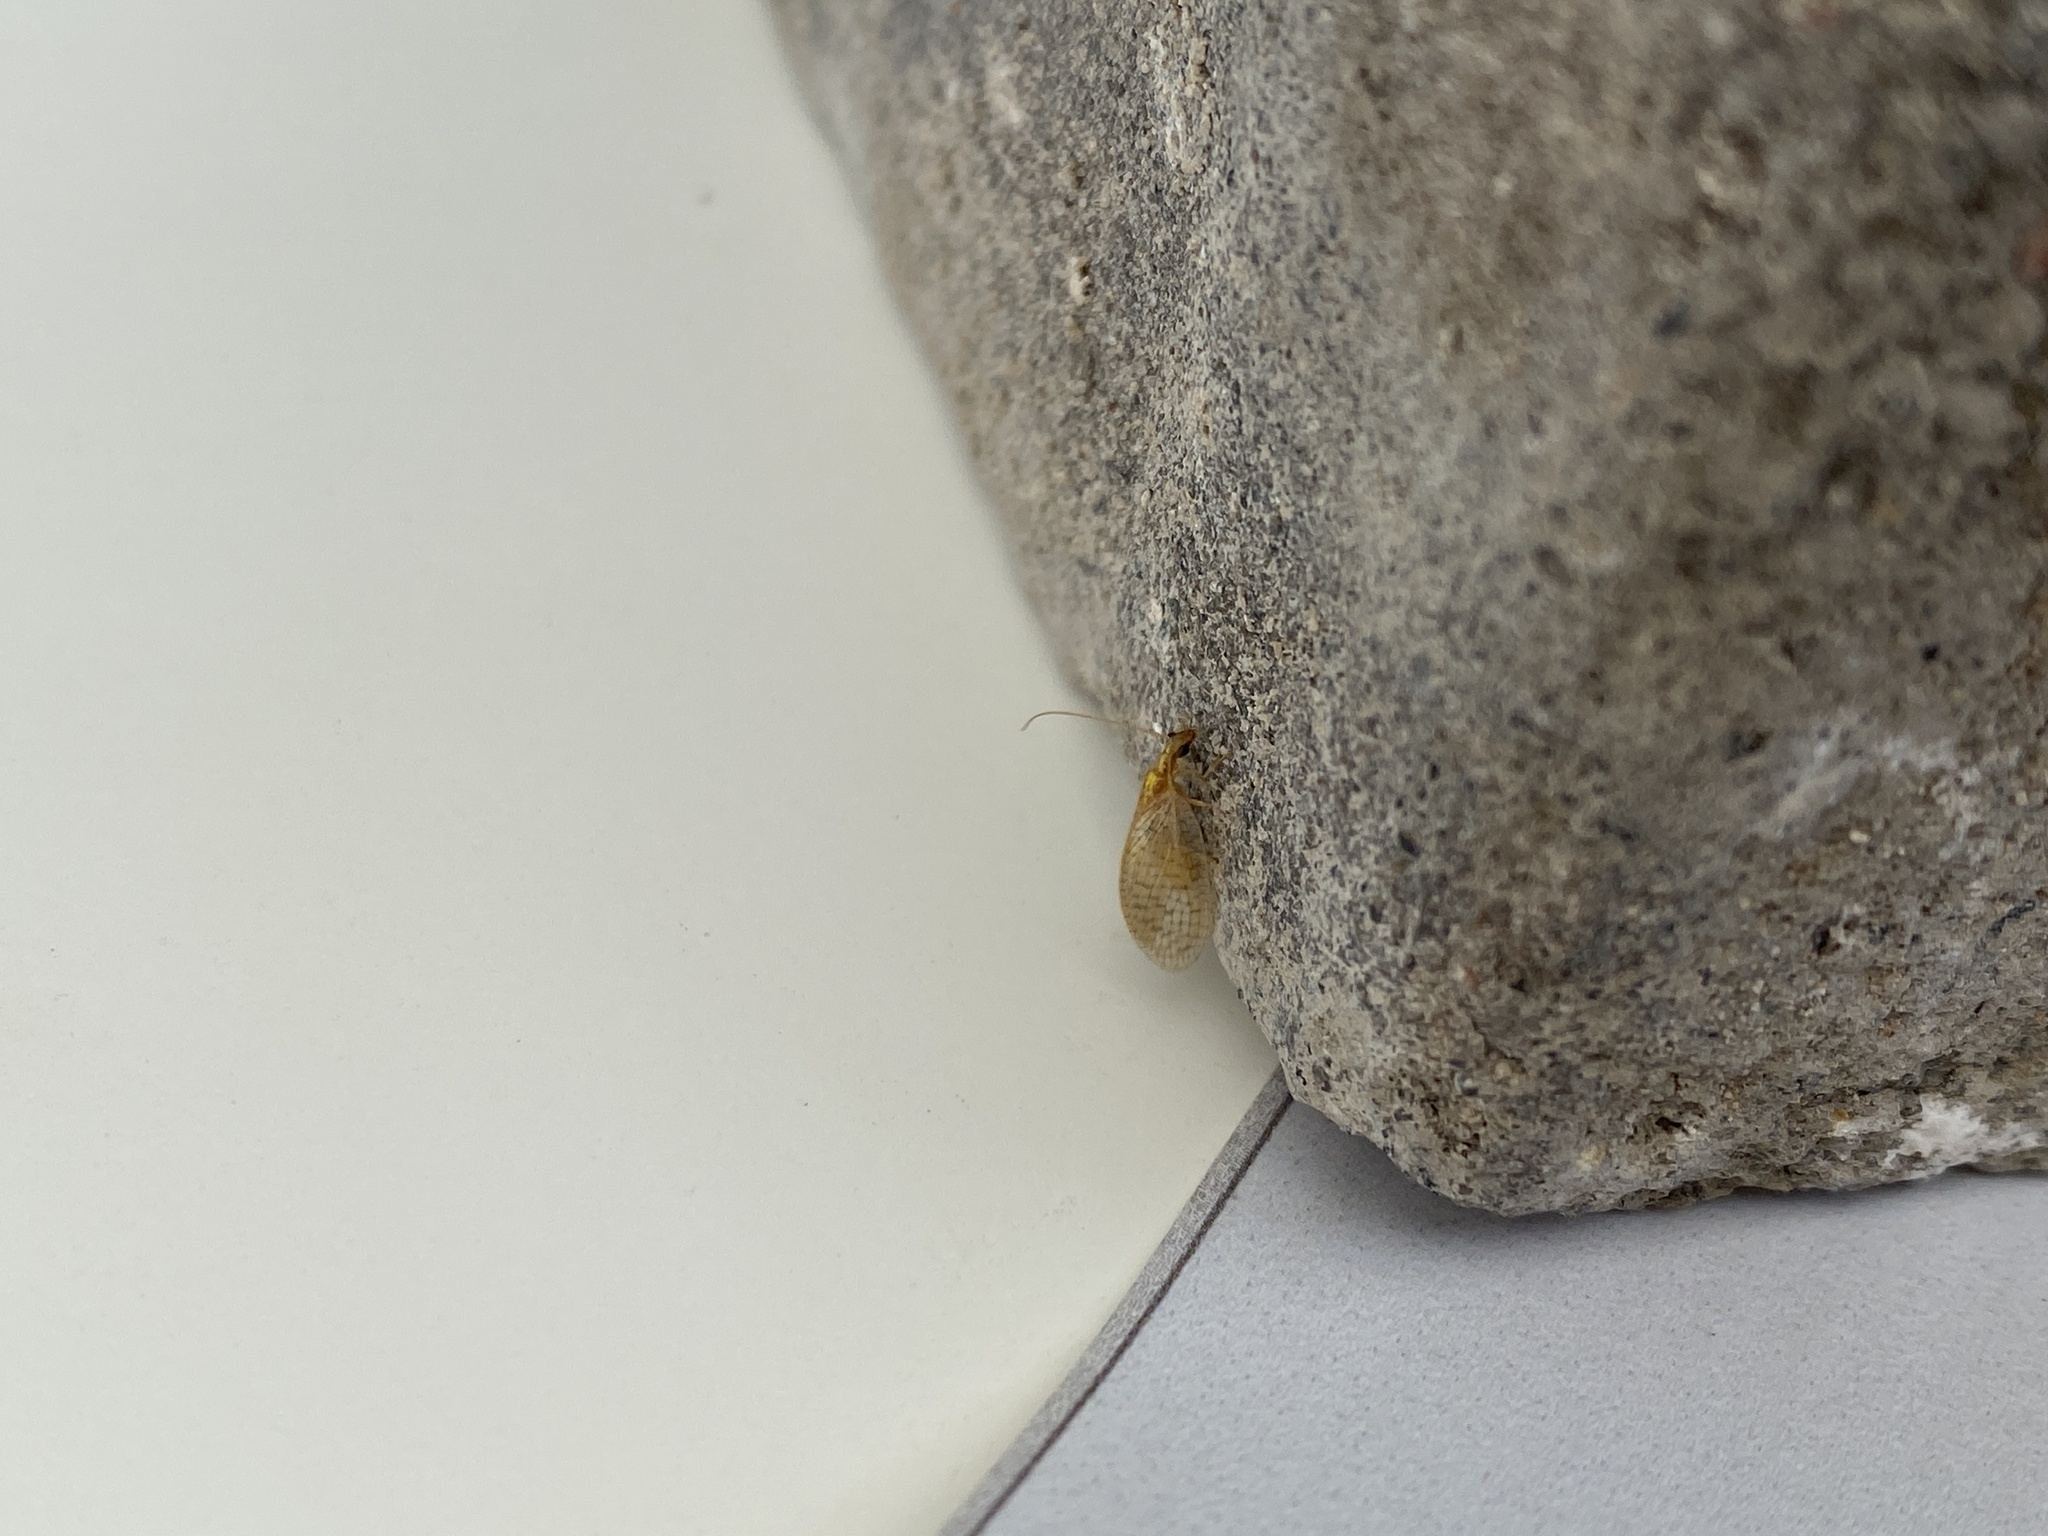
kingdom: Animalia
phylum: Arthropoda
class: Insecta
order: Neuroptera
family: Hemerobiidae
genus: Hemerobius
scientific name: Hemerobius micans
